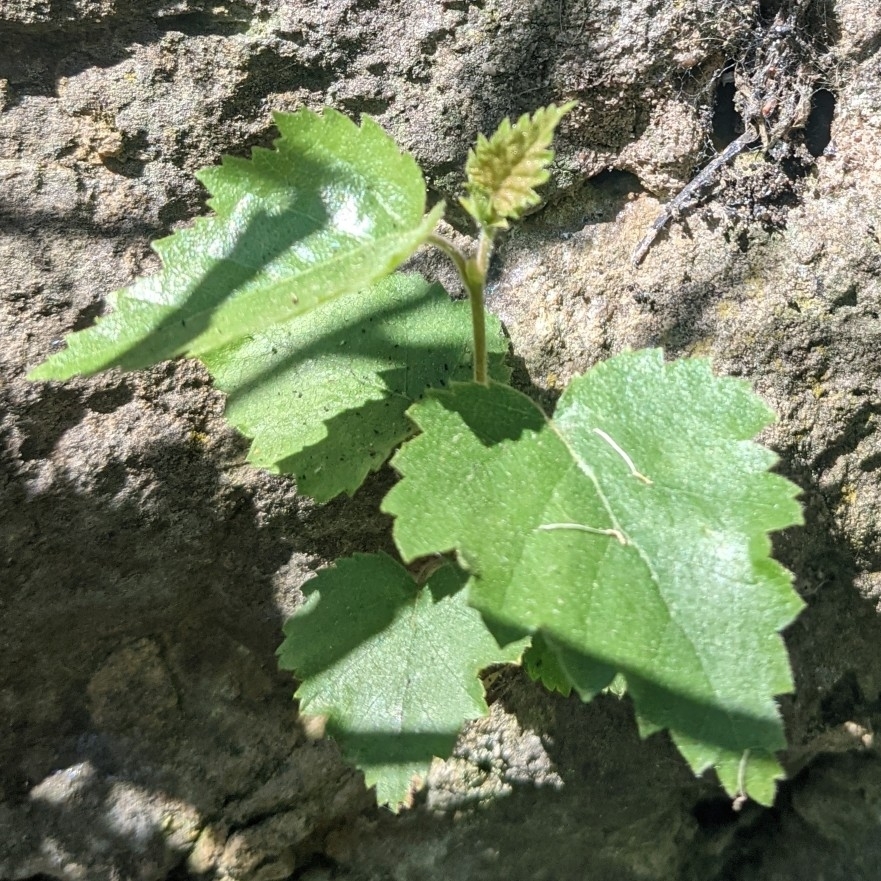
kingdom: Plantae
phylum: Tracheophyta
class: Magnoliopsida
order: Fagales
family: Betulaceae
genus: Betula
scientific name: Betula pendula
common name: Silver birch
